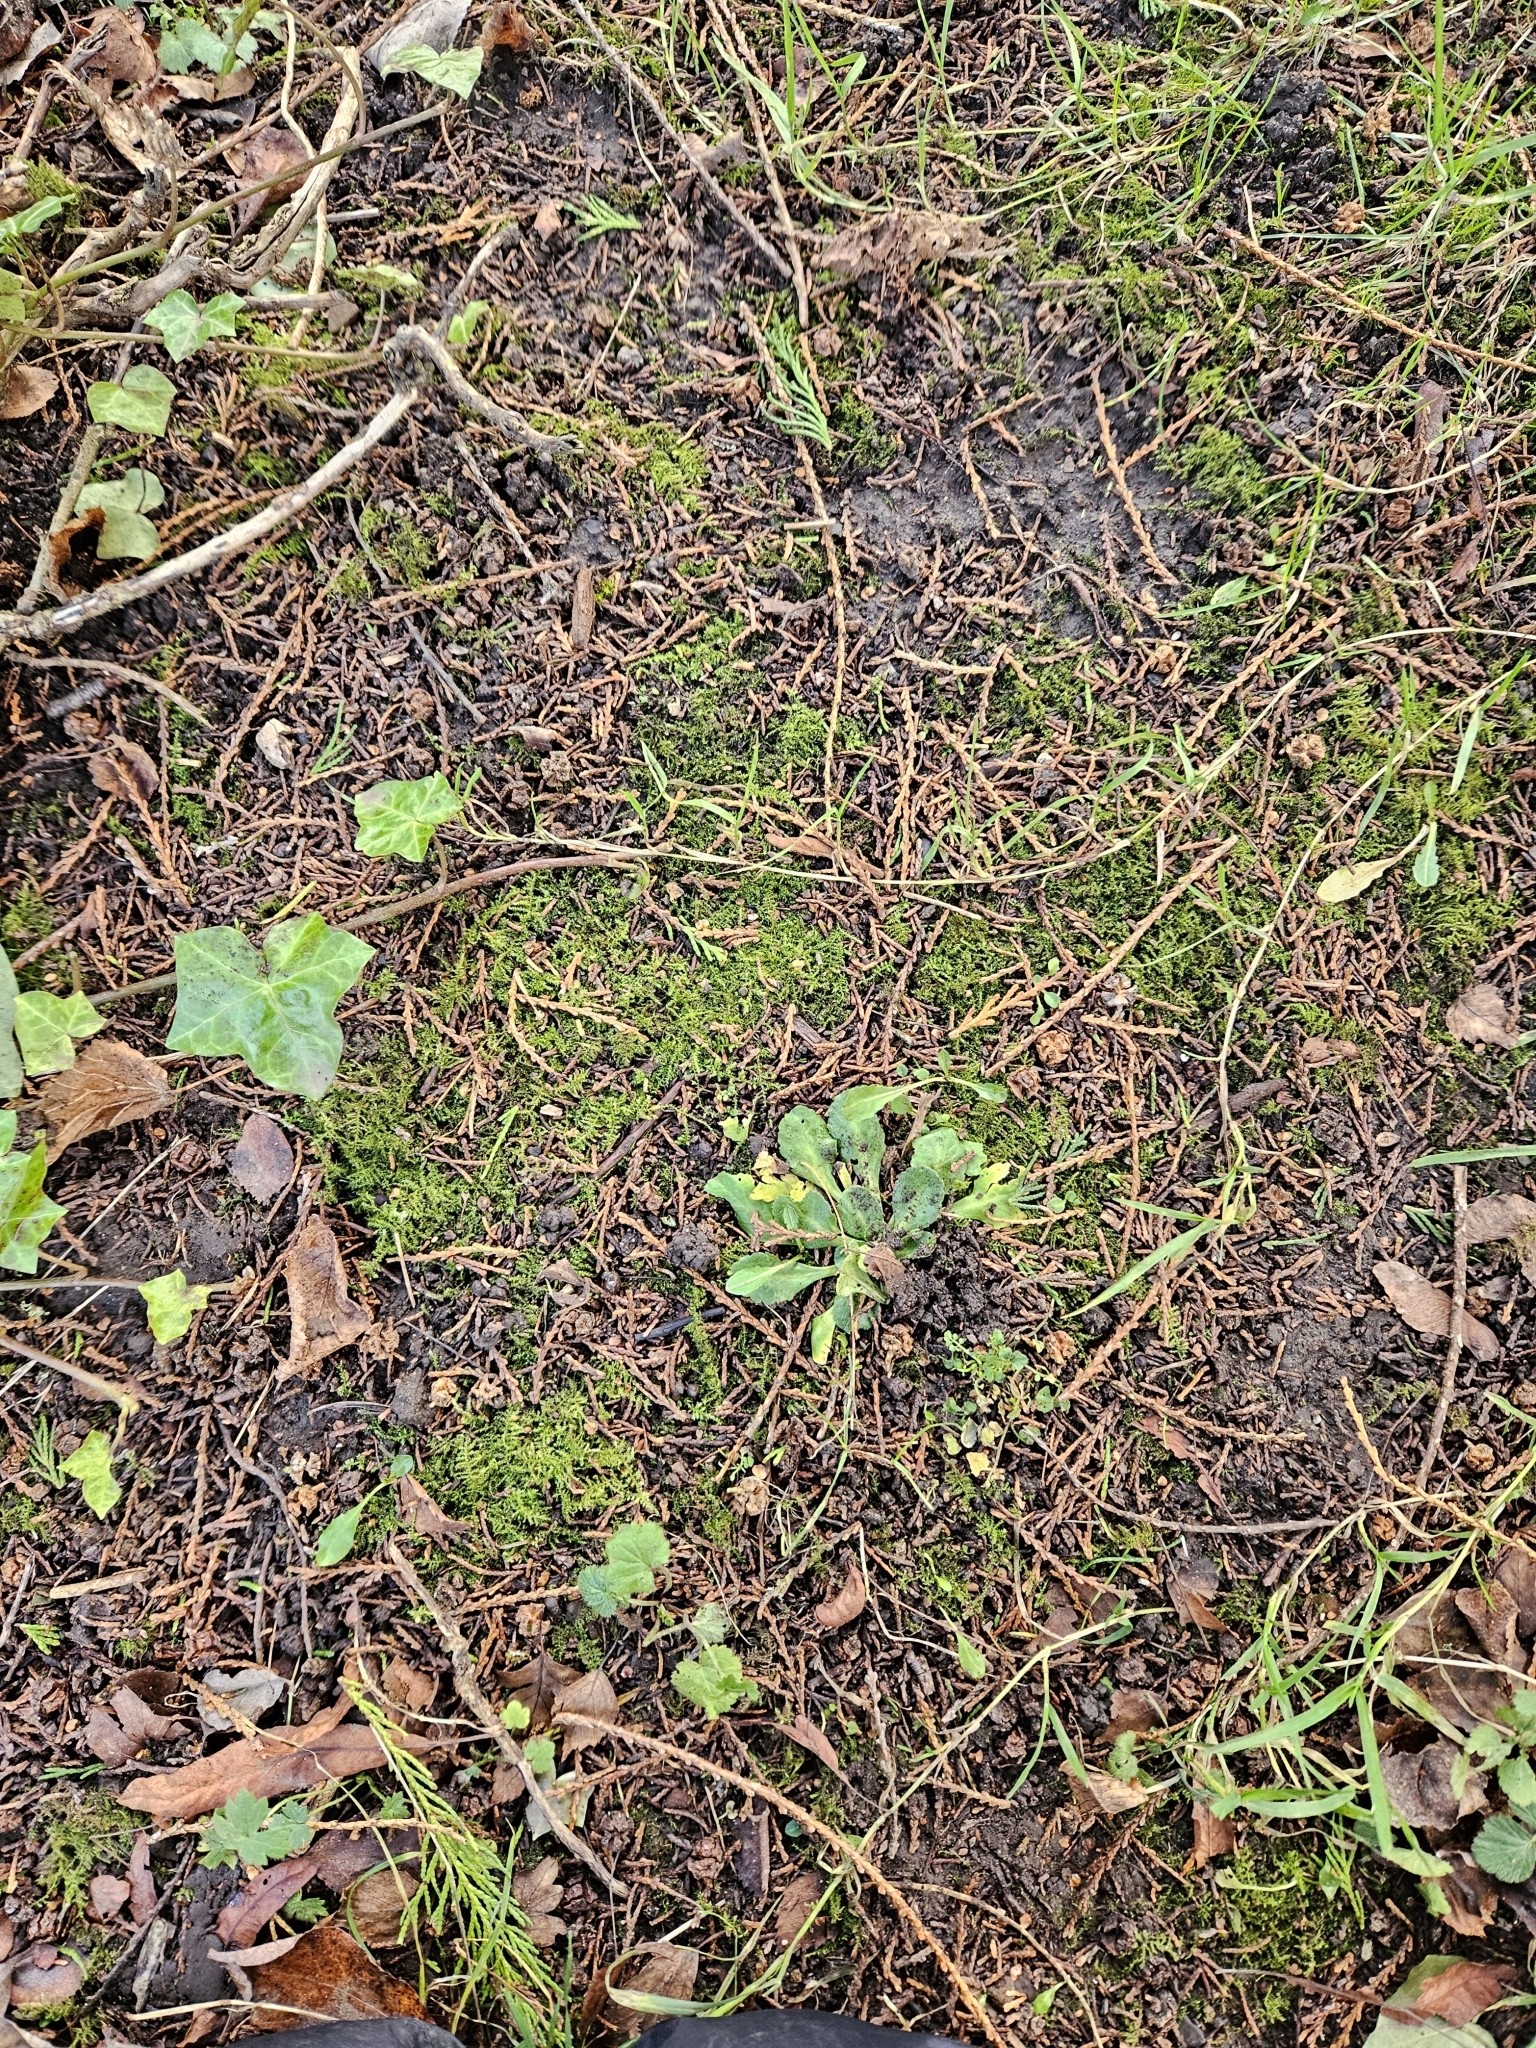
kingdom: Plantae
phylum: Bryophyta
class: Bryopsida
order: Hypnales
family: Brachytheciaceae
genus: Oxyrrhynchium
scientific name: Oxyrrhynchium hians
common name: Spreading beaked moss
